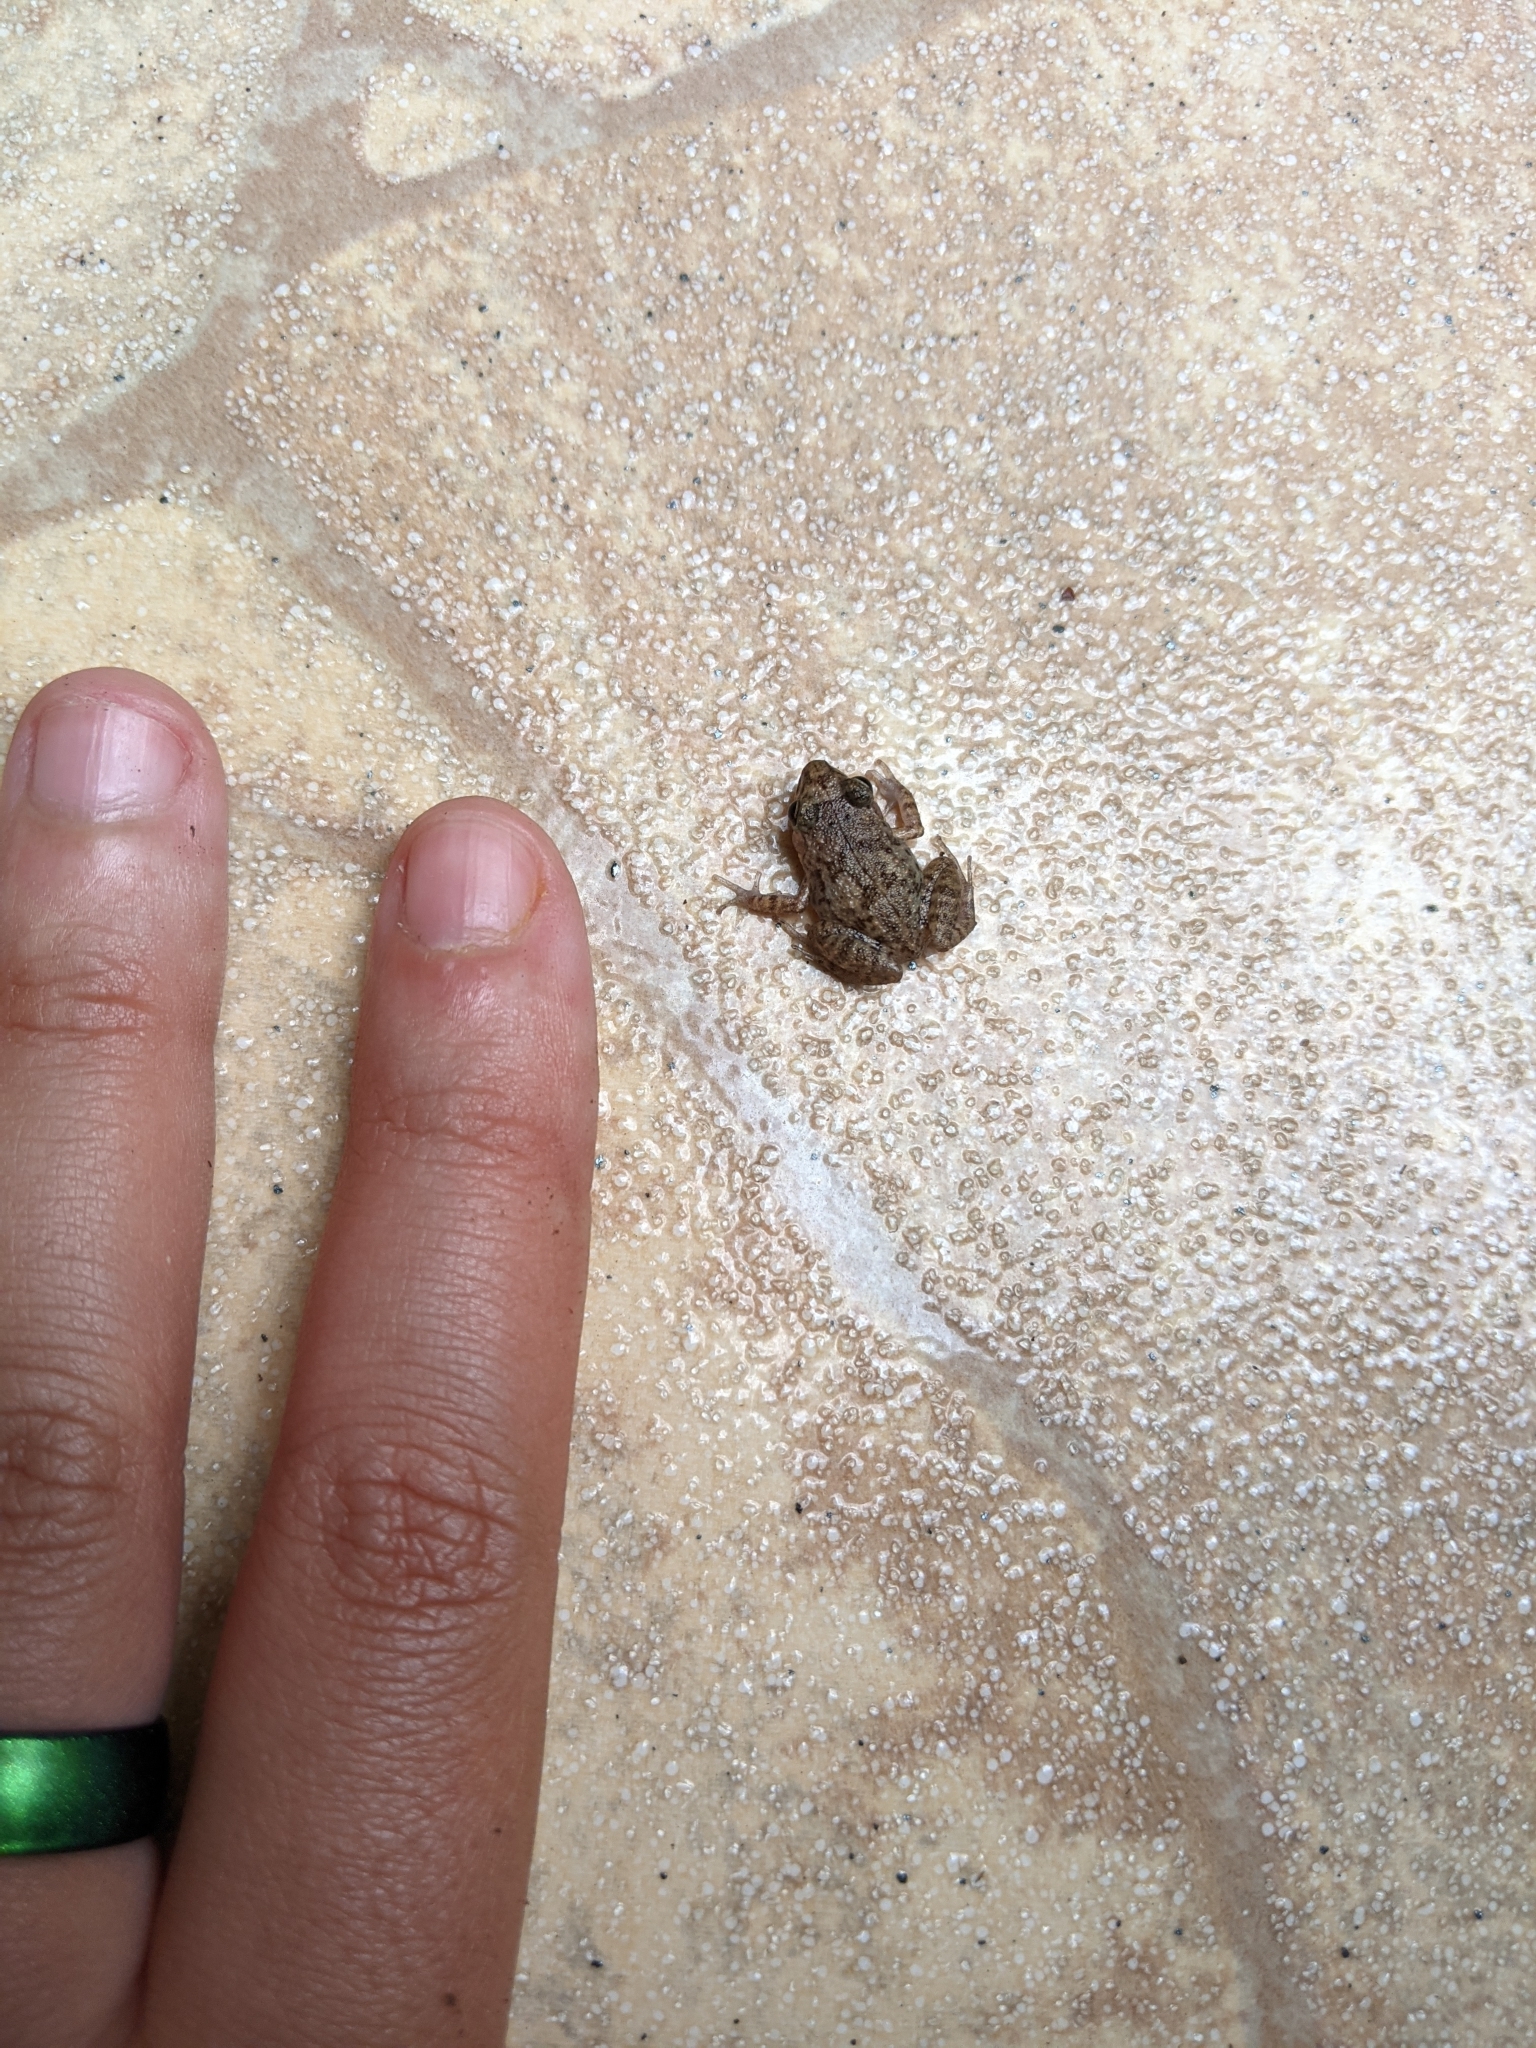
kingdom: Animalia
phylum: Chordata
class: Amphibia
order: Anura
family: Eleutherodactylidae
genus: Eleutherodactylus
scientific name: Eleutherodactylus planirostris
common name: Greenhouse frog
